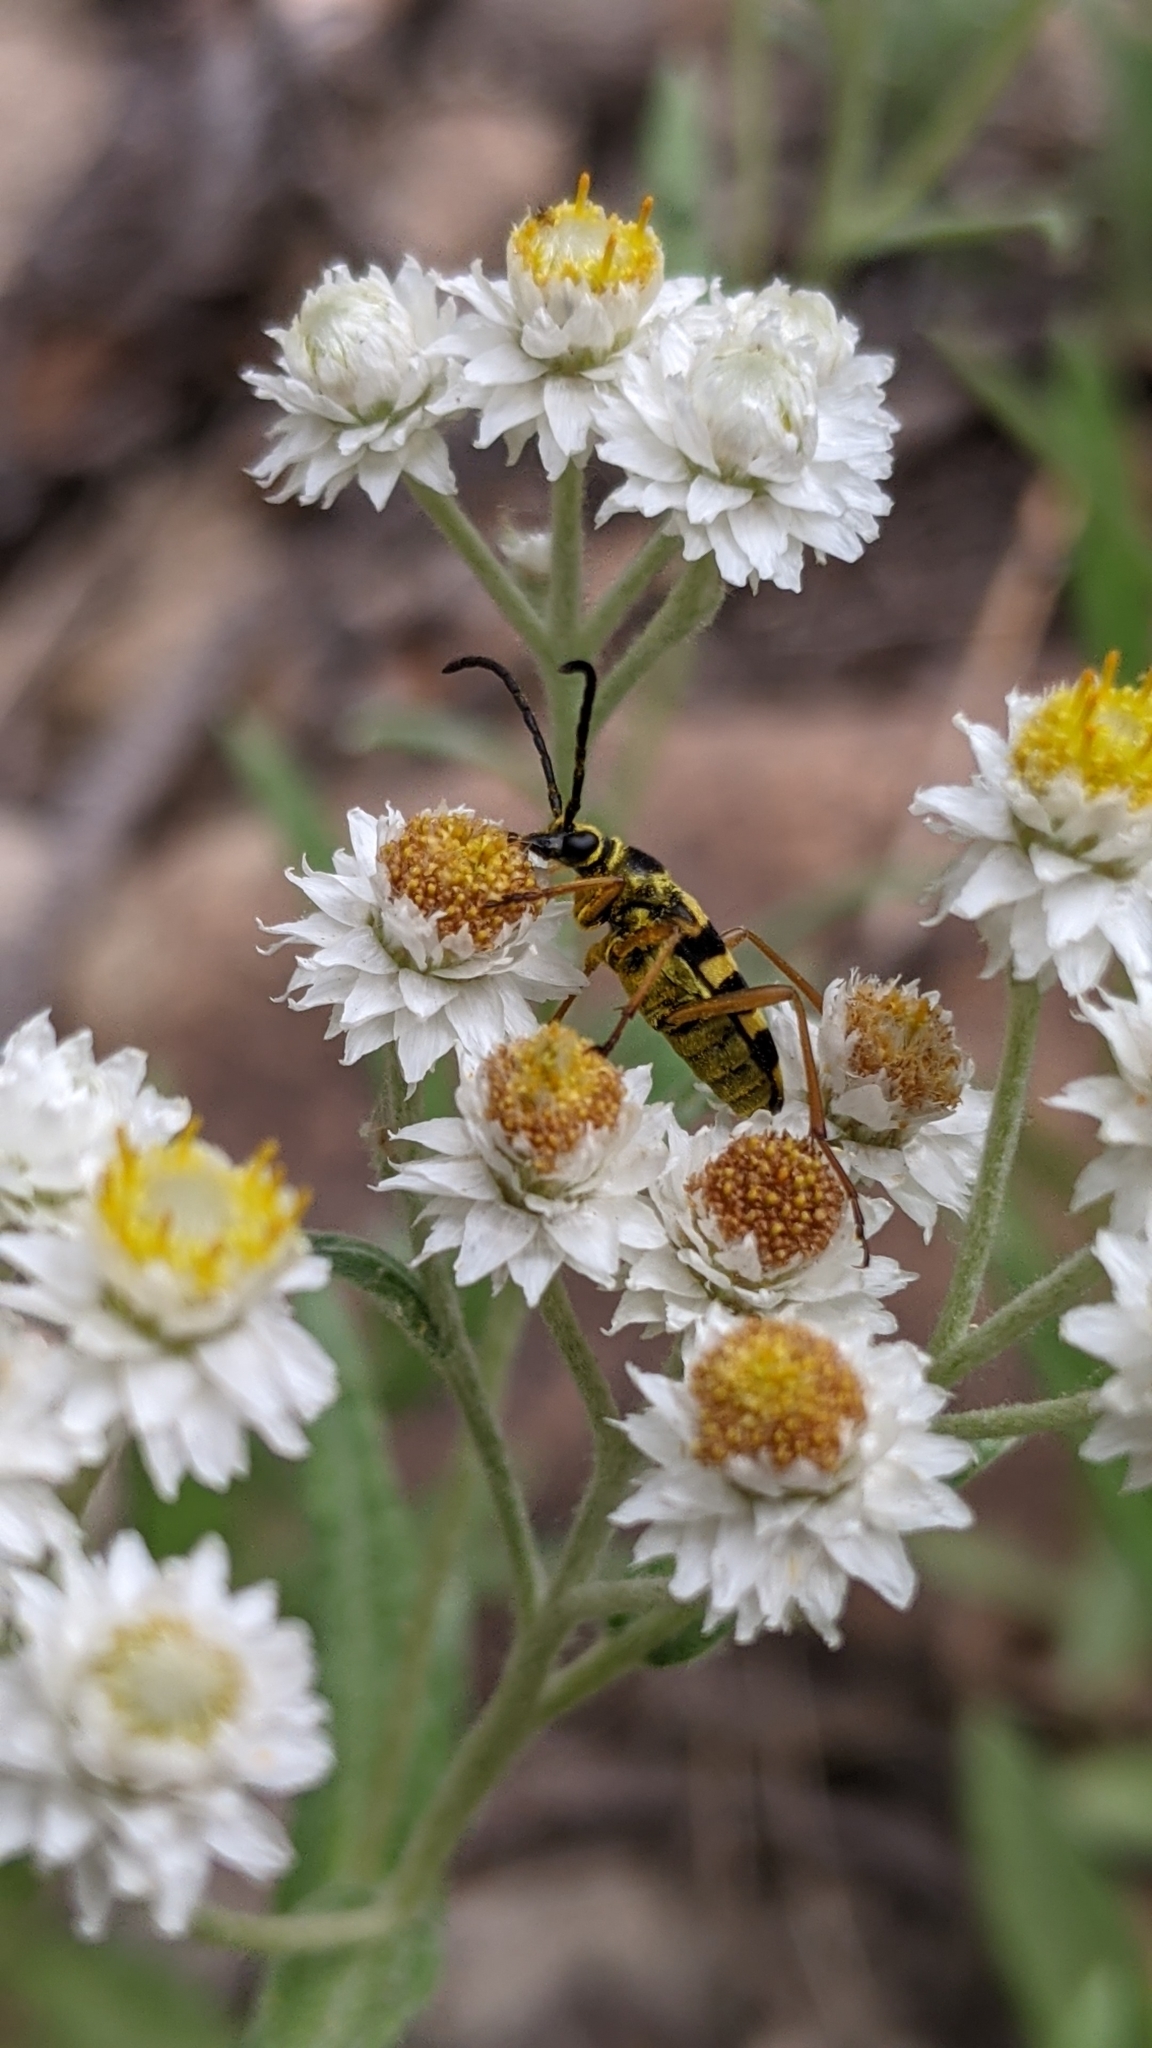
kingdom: Animalia
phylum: Arthropoda
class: Insecta
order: Coleoptera
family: Cerambycidae
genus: Stenostrophia
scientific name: Stenostrophia tribalteata
